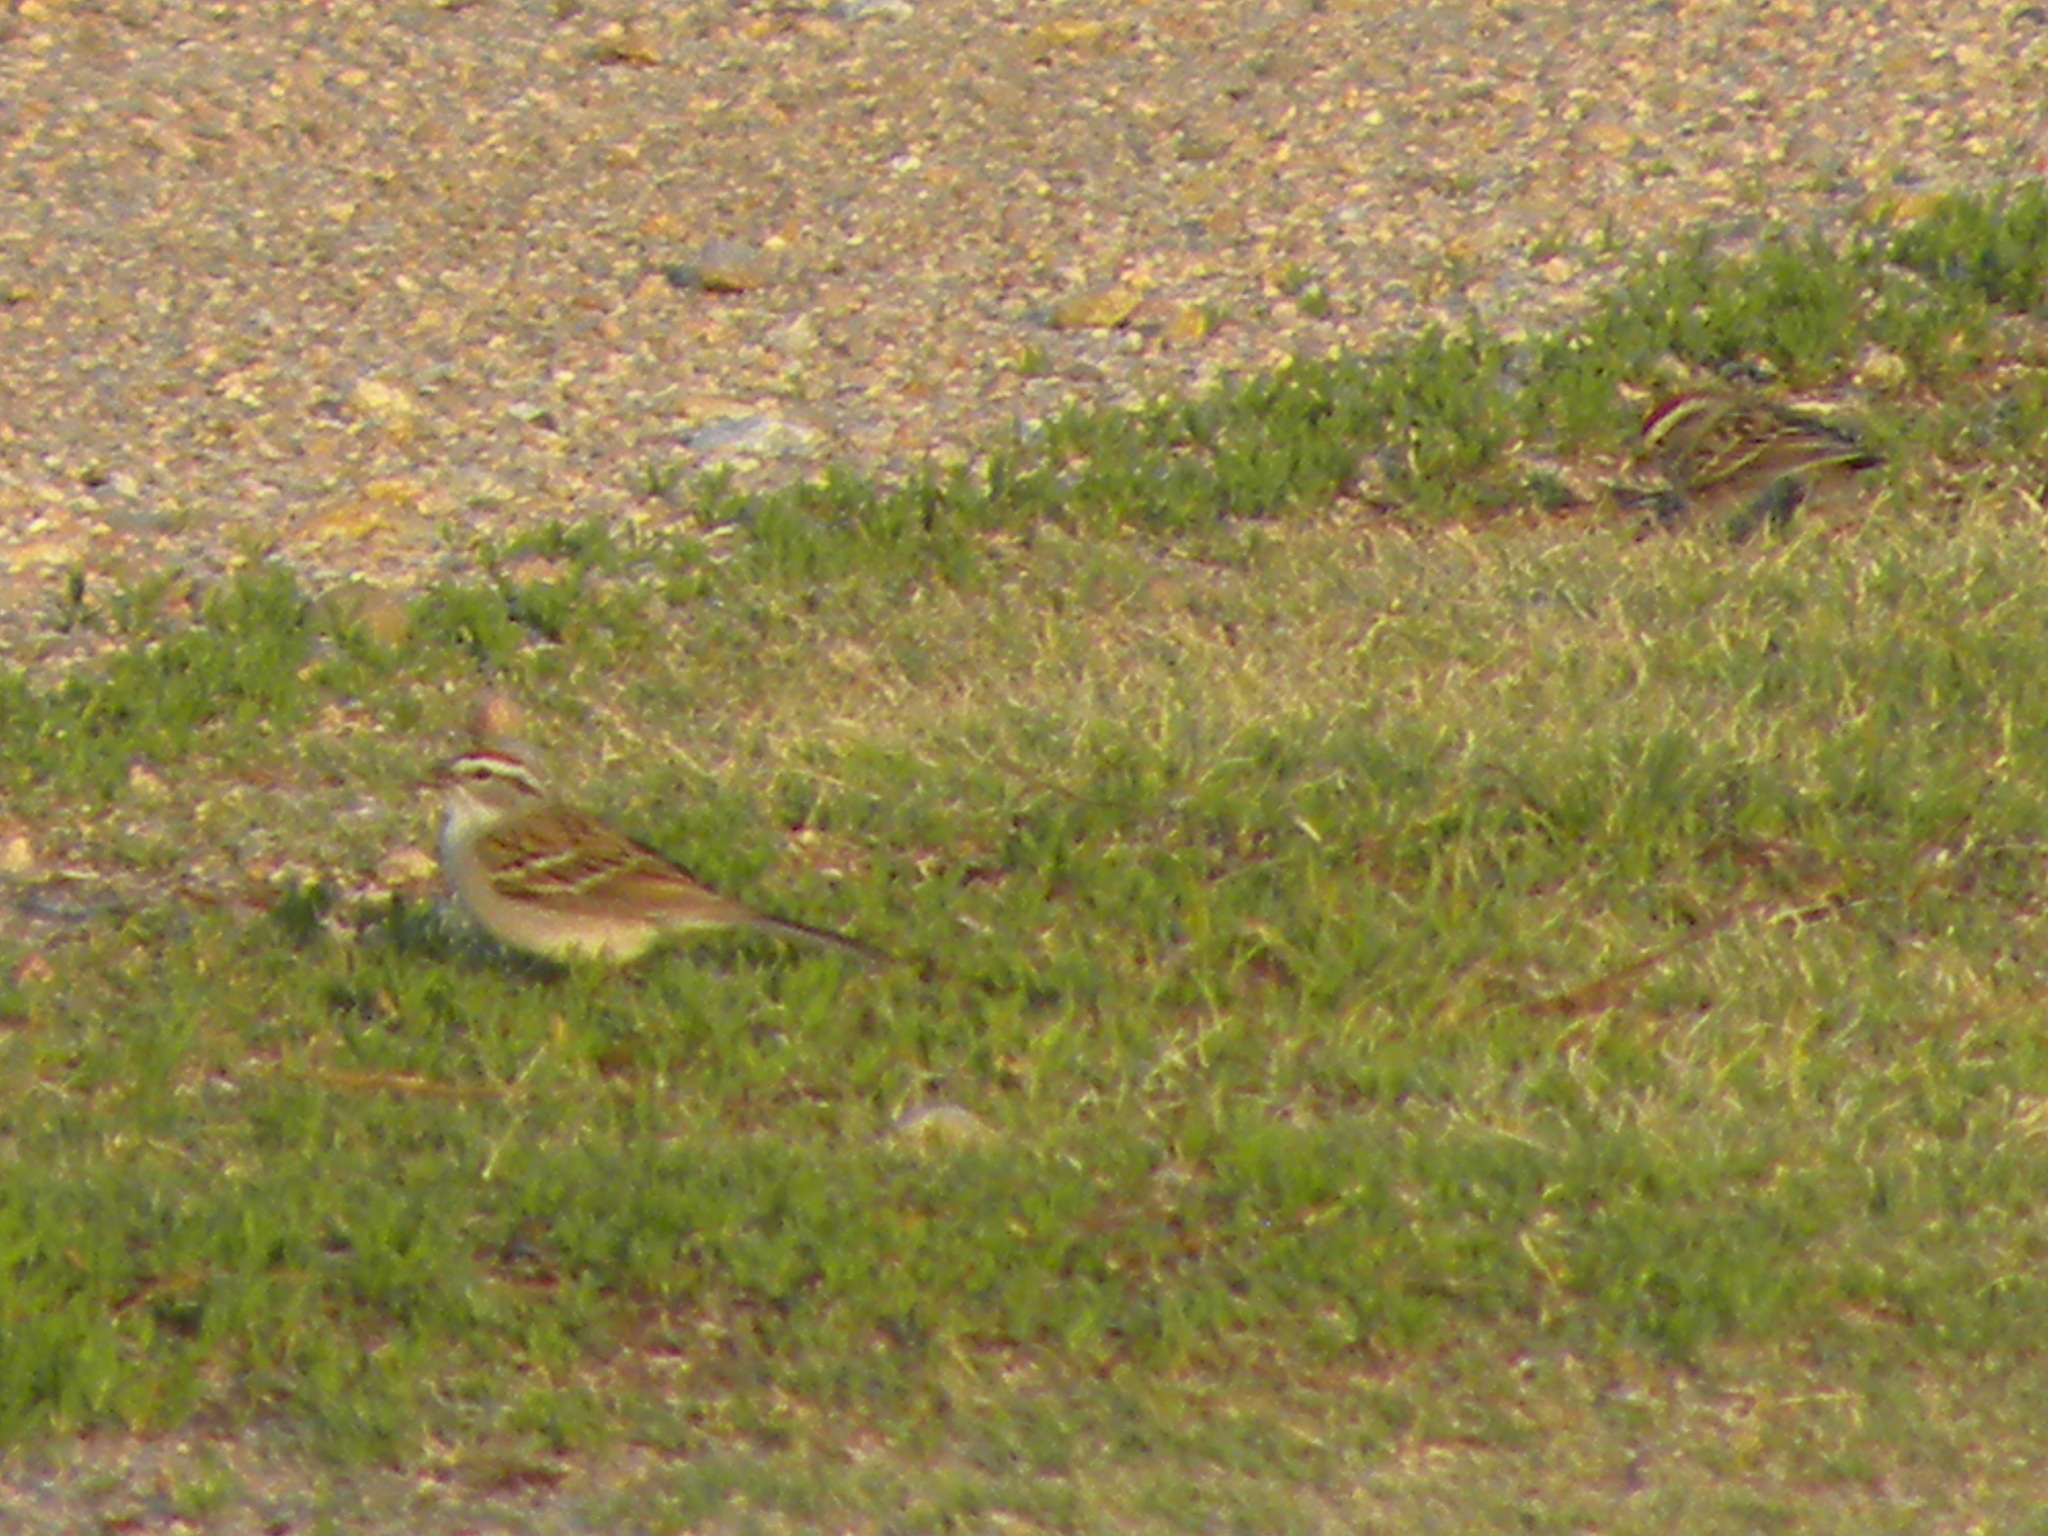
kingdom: Animalia
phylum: Chordata
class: Aves
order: Passeriformes
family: Passerellidae
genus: Spizella
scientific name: Spizella passerina
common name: Chipping sparrow
